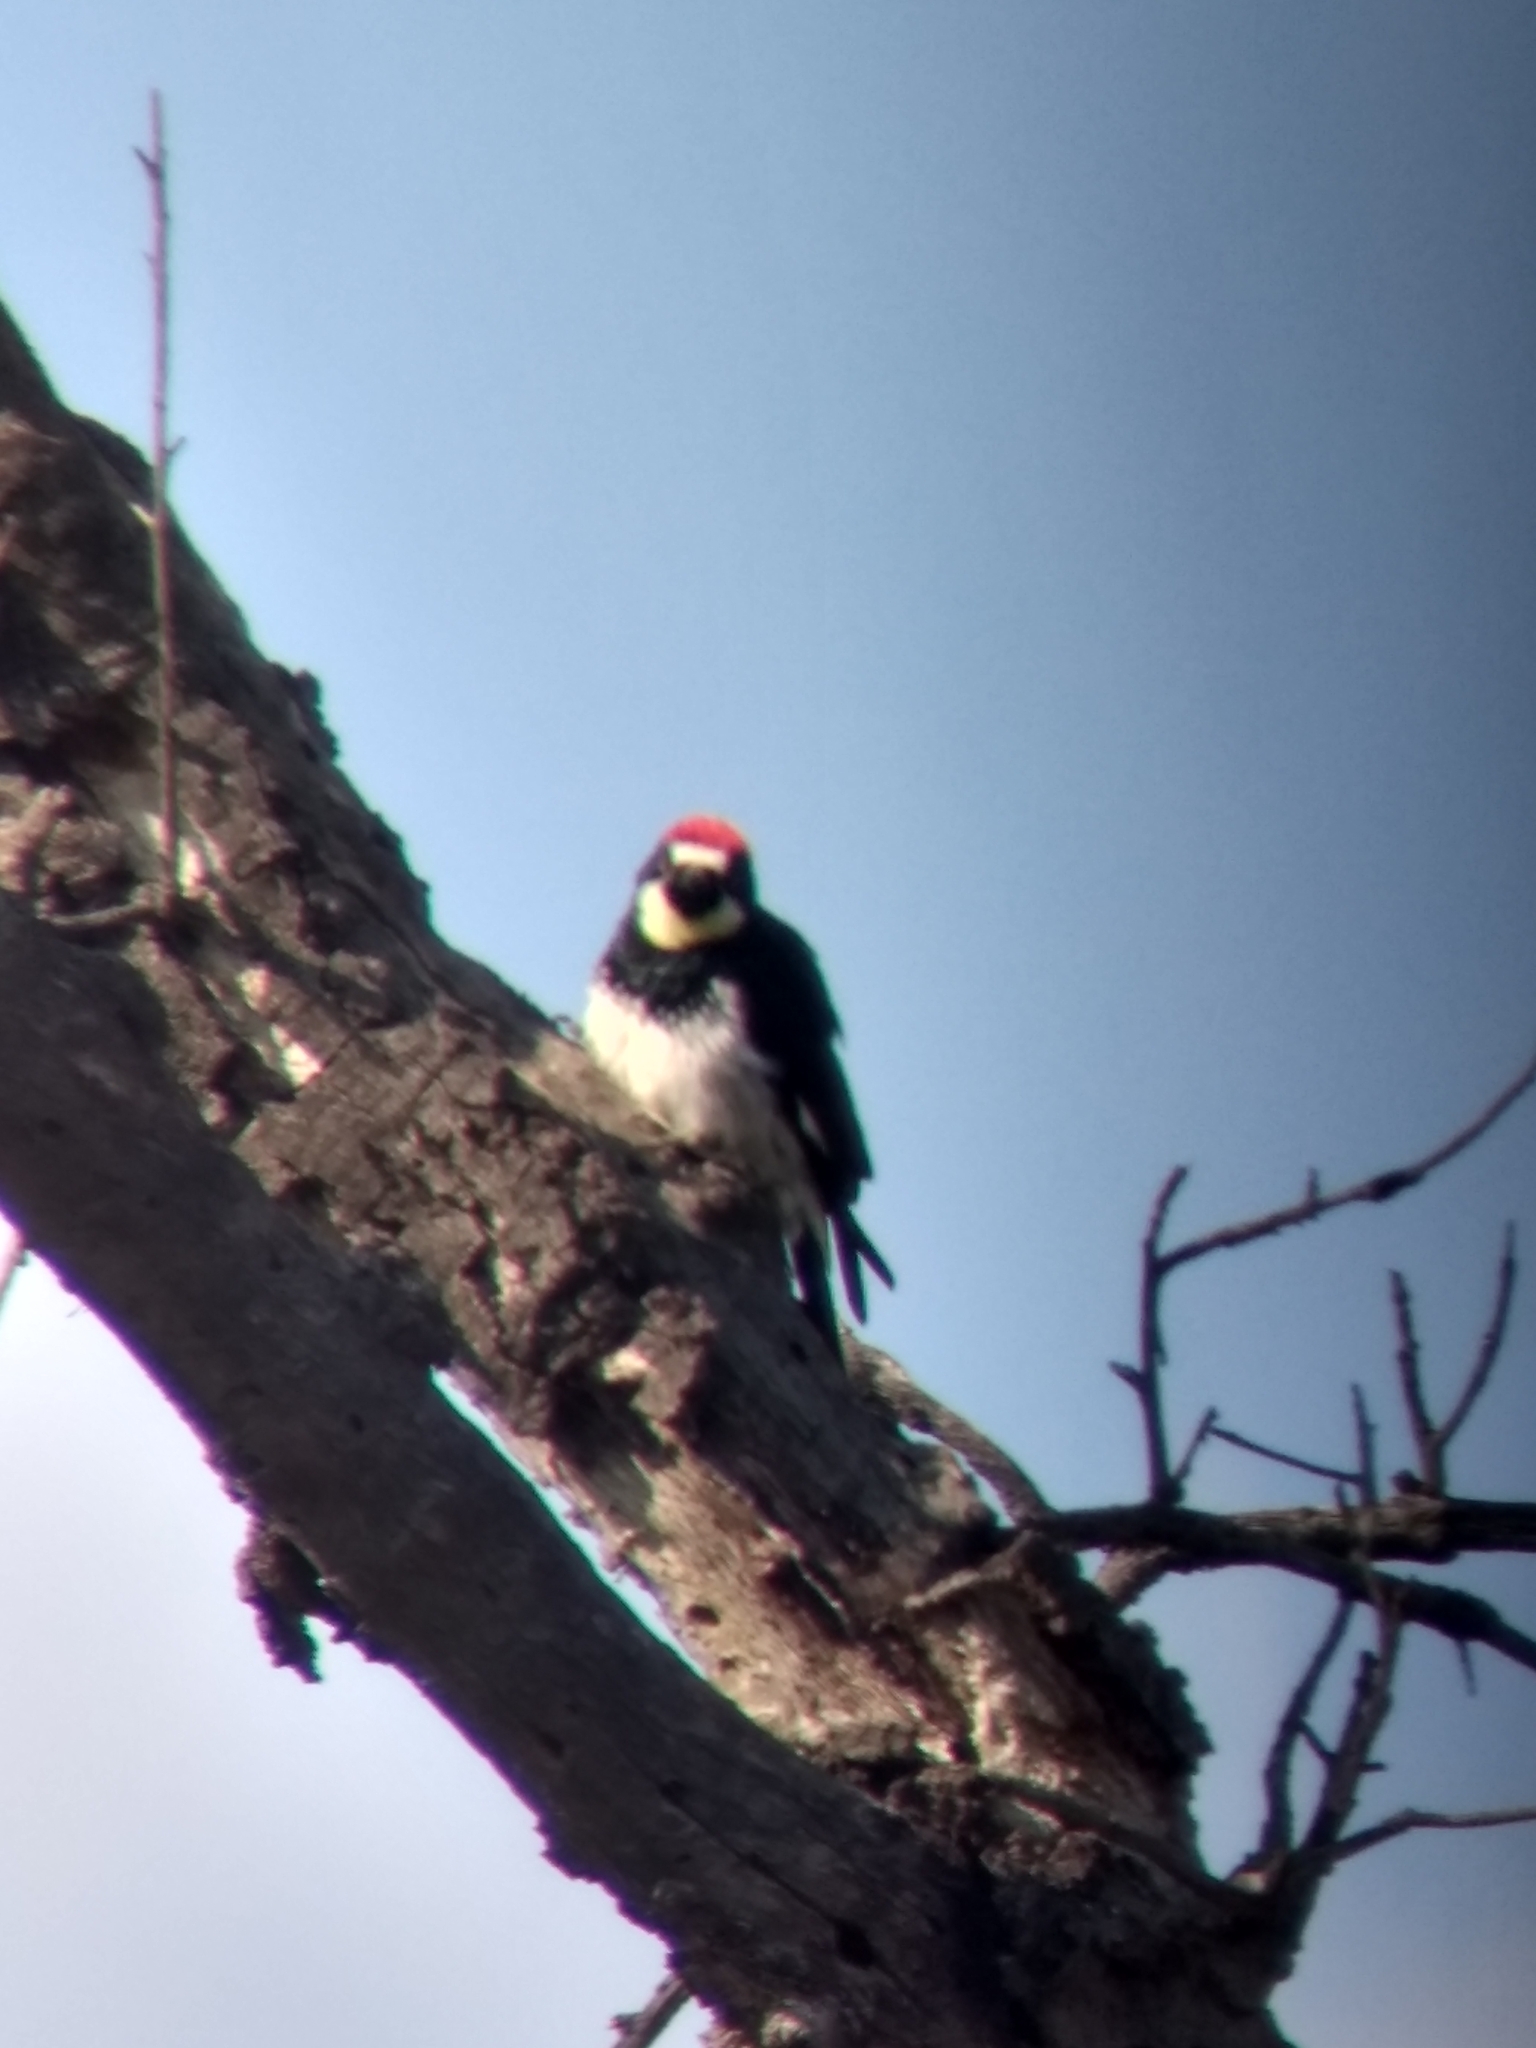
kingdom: Animalia
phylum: Chordata
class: Aves
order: Piciformes
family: Picidae
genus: Melanerpes
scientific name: Melanerpes formicivorus
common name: Acorn woodpecker
